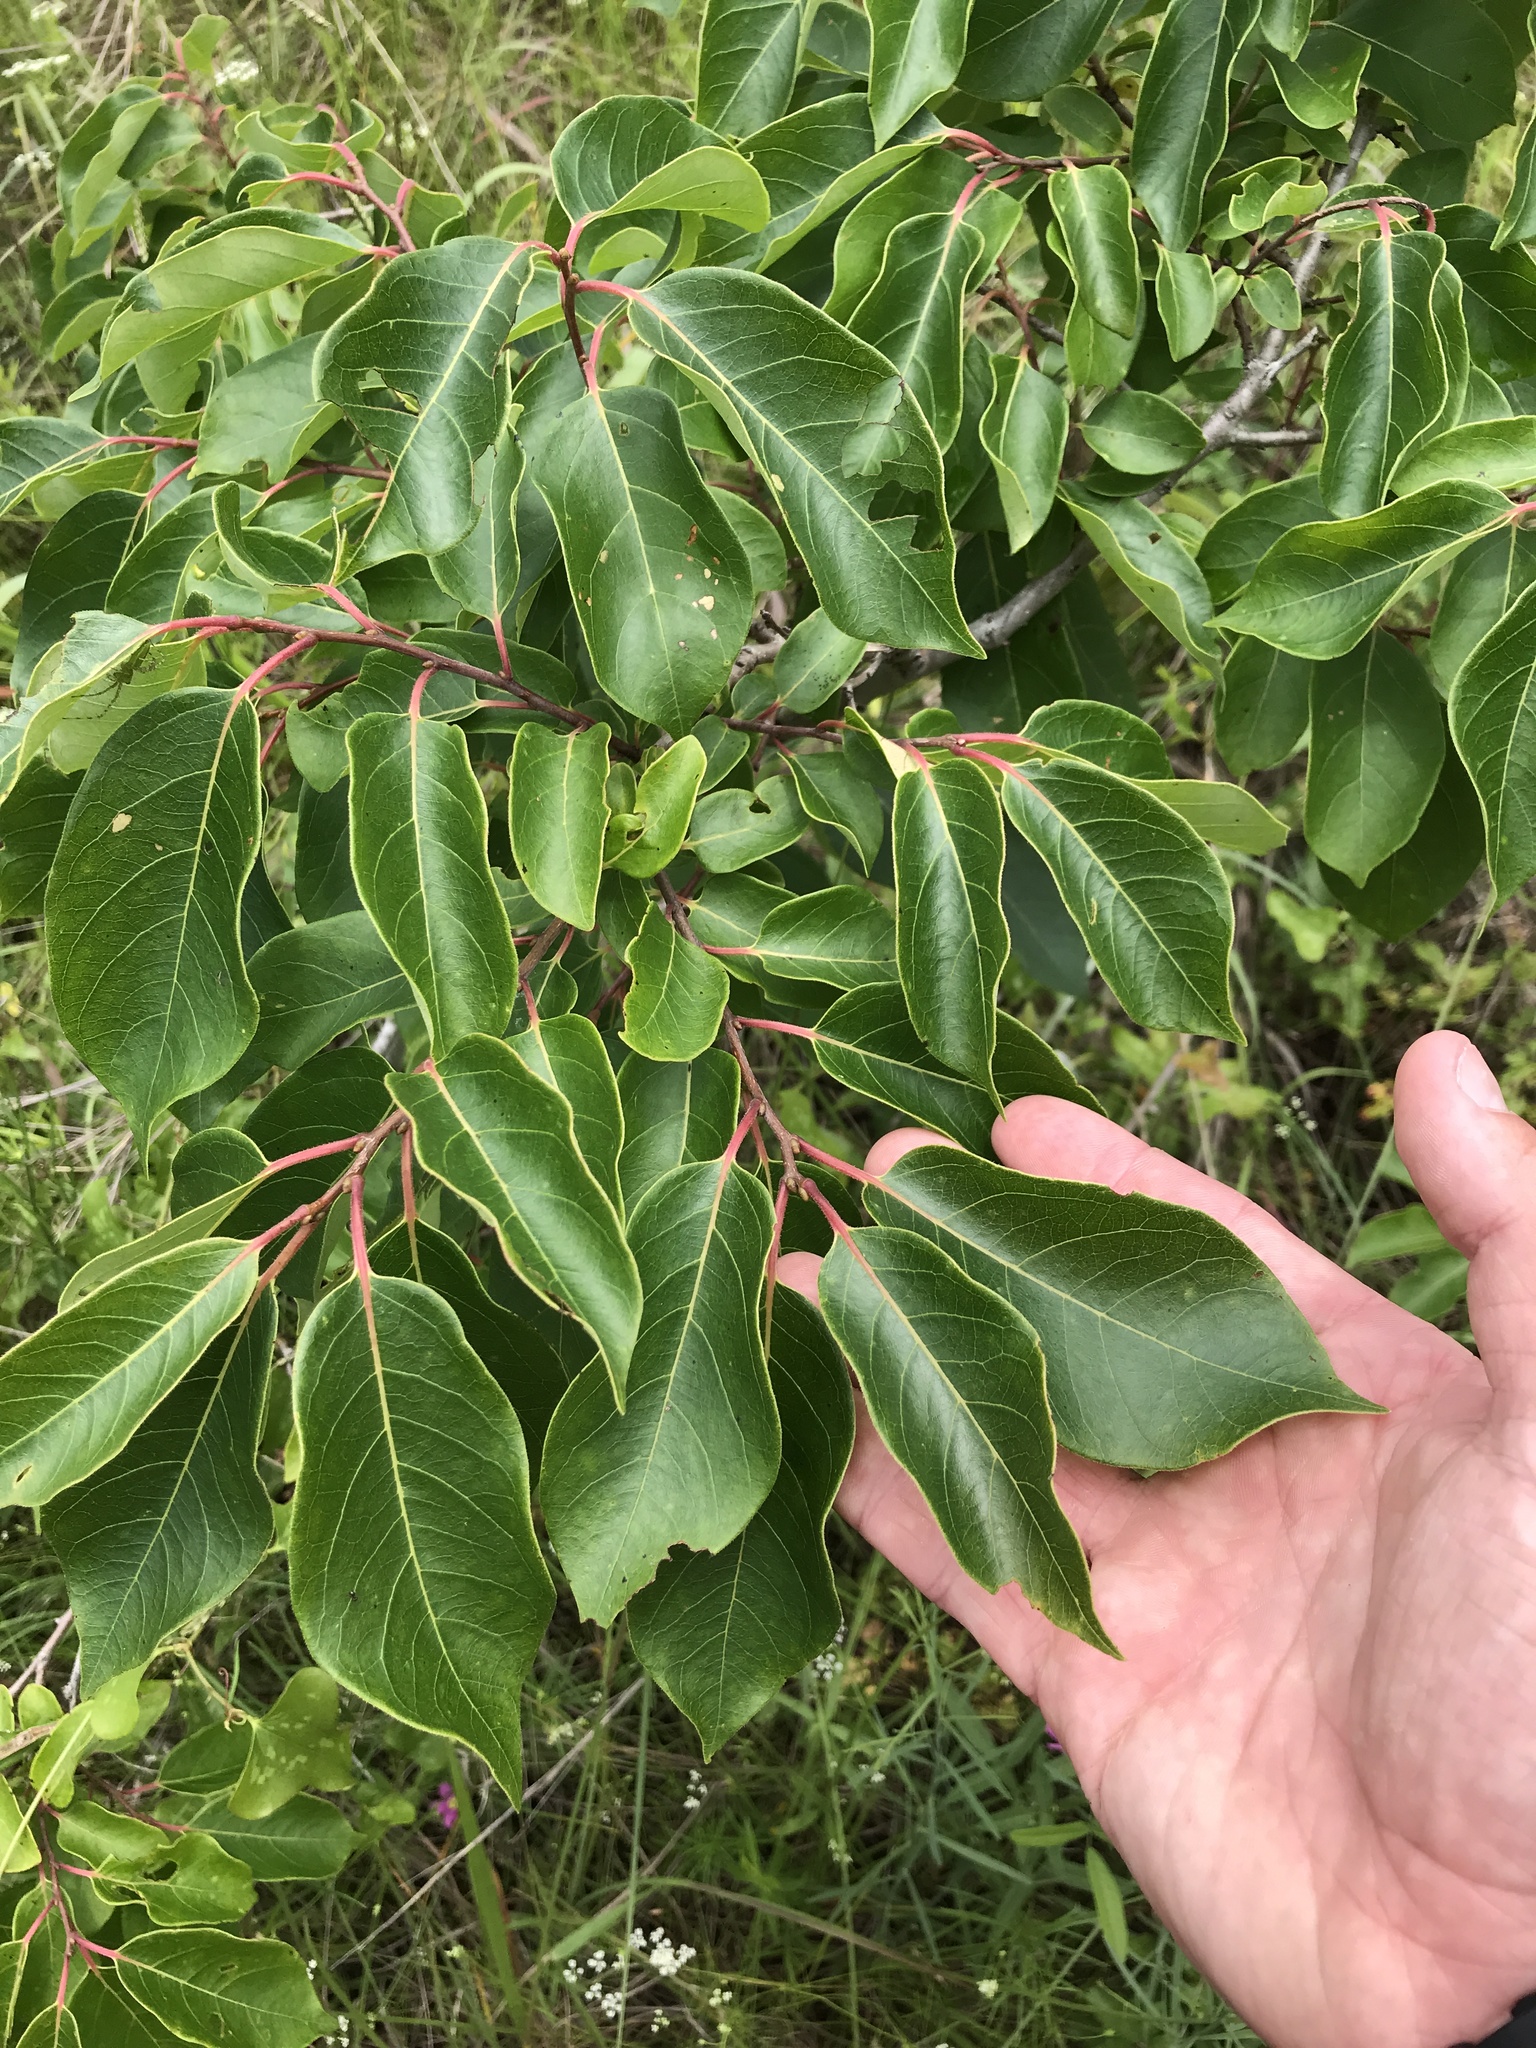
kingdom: Plantae
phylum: Tracheophyta
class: Magnoliopsida
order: Ericales
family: Ebenaceae
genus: Diospyros
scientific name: Diospyros virginiana
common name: Persimmon
